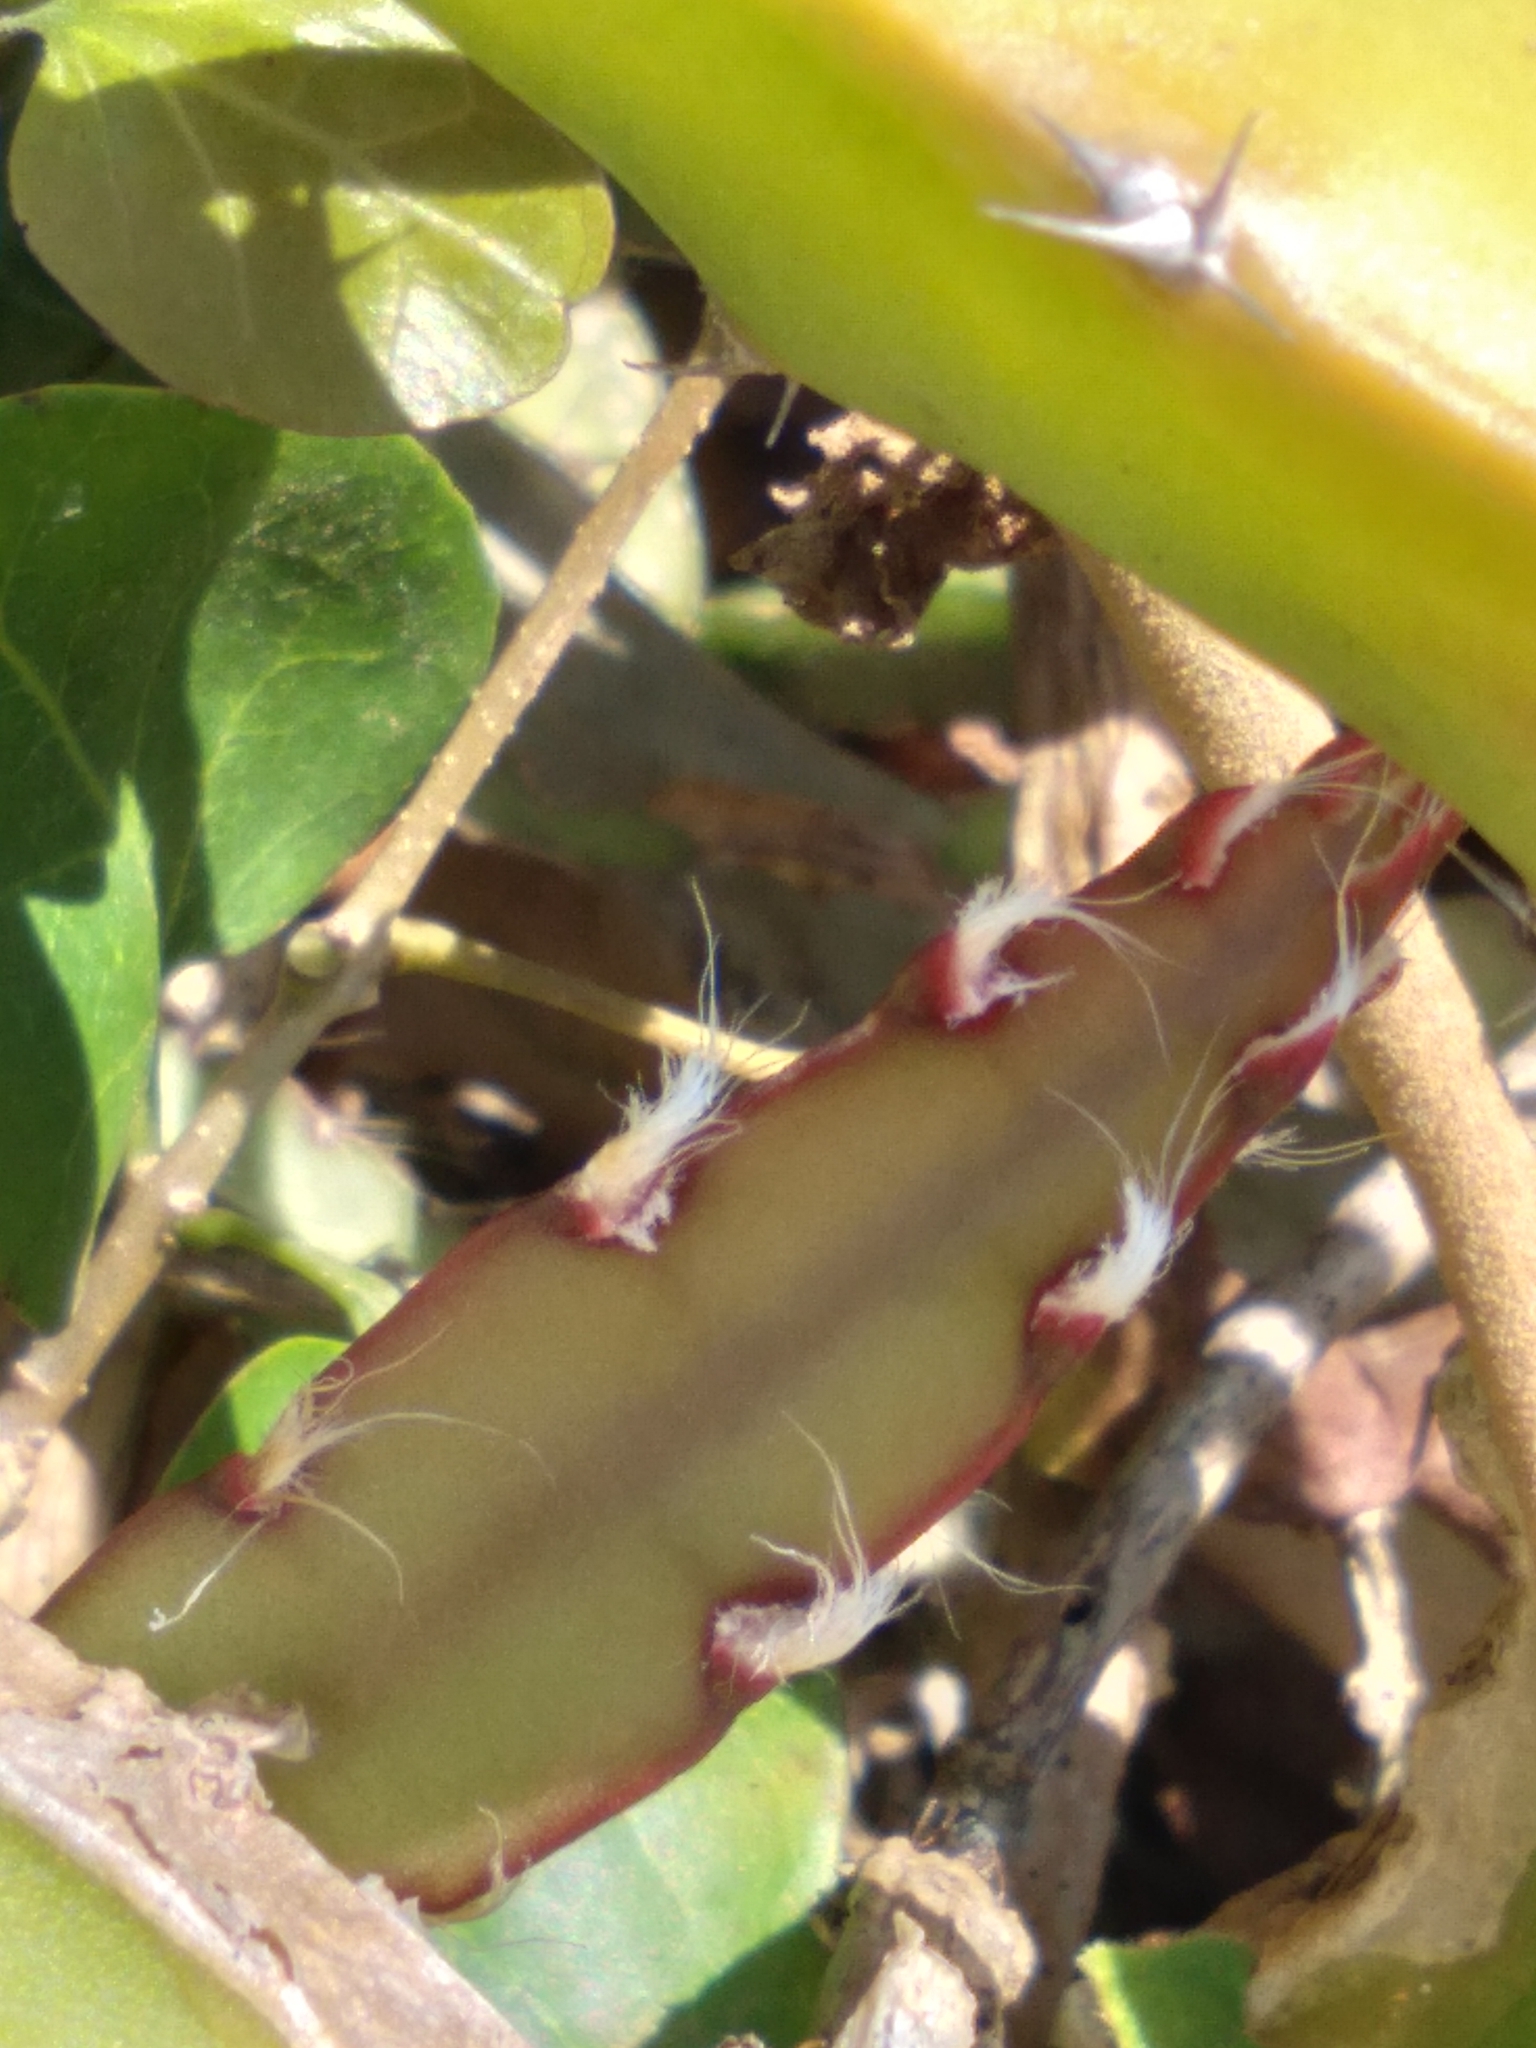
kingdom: Plantae
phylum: Tracheophyta
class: Magnoliopsida
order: Caryophyllales
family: Cactaceae
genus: Lepismium
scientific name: Lepismium cruciforme
